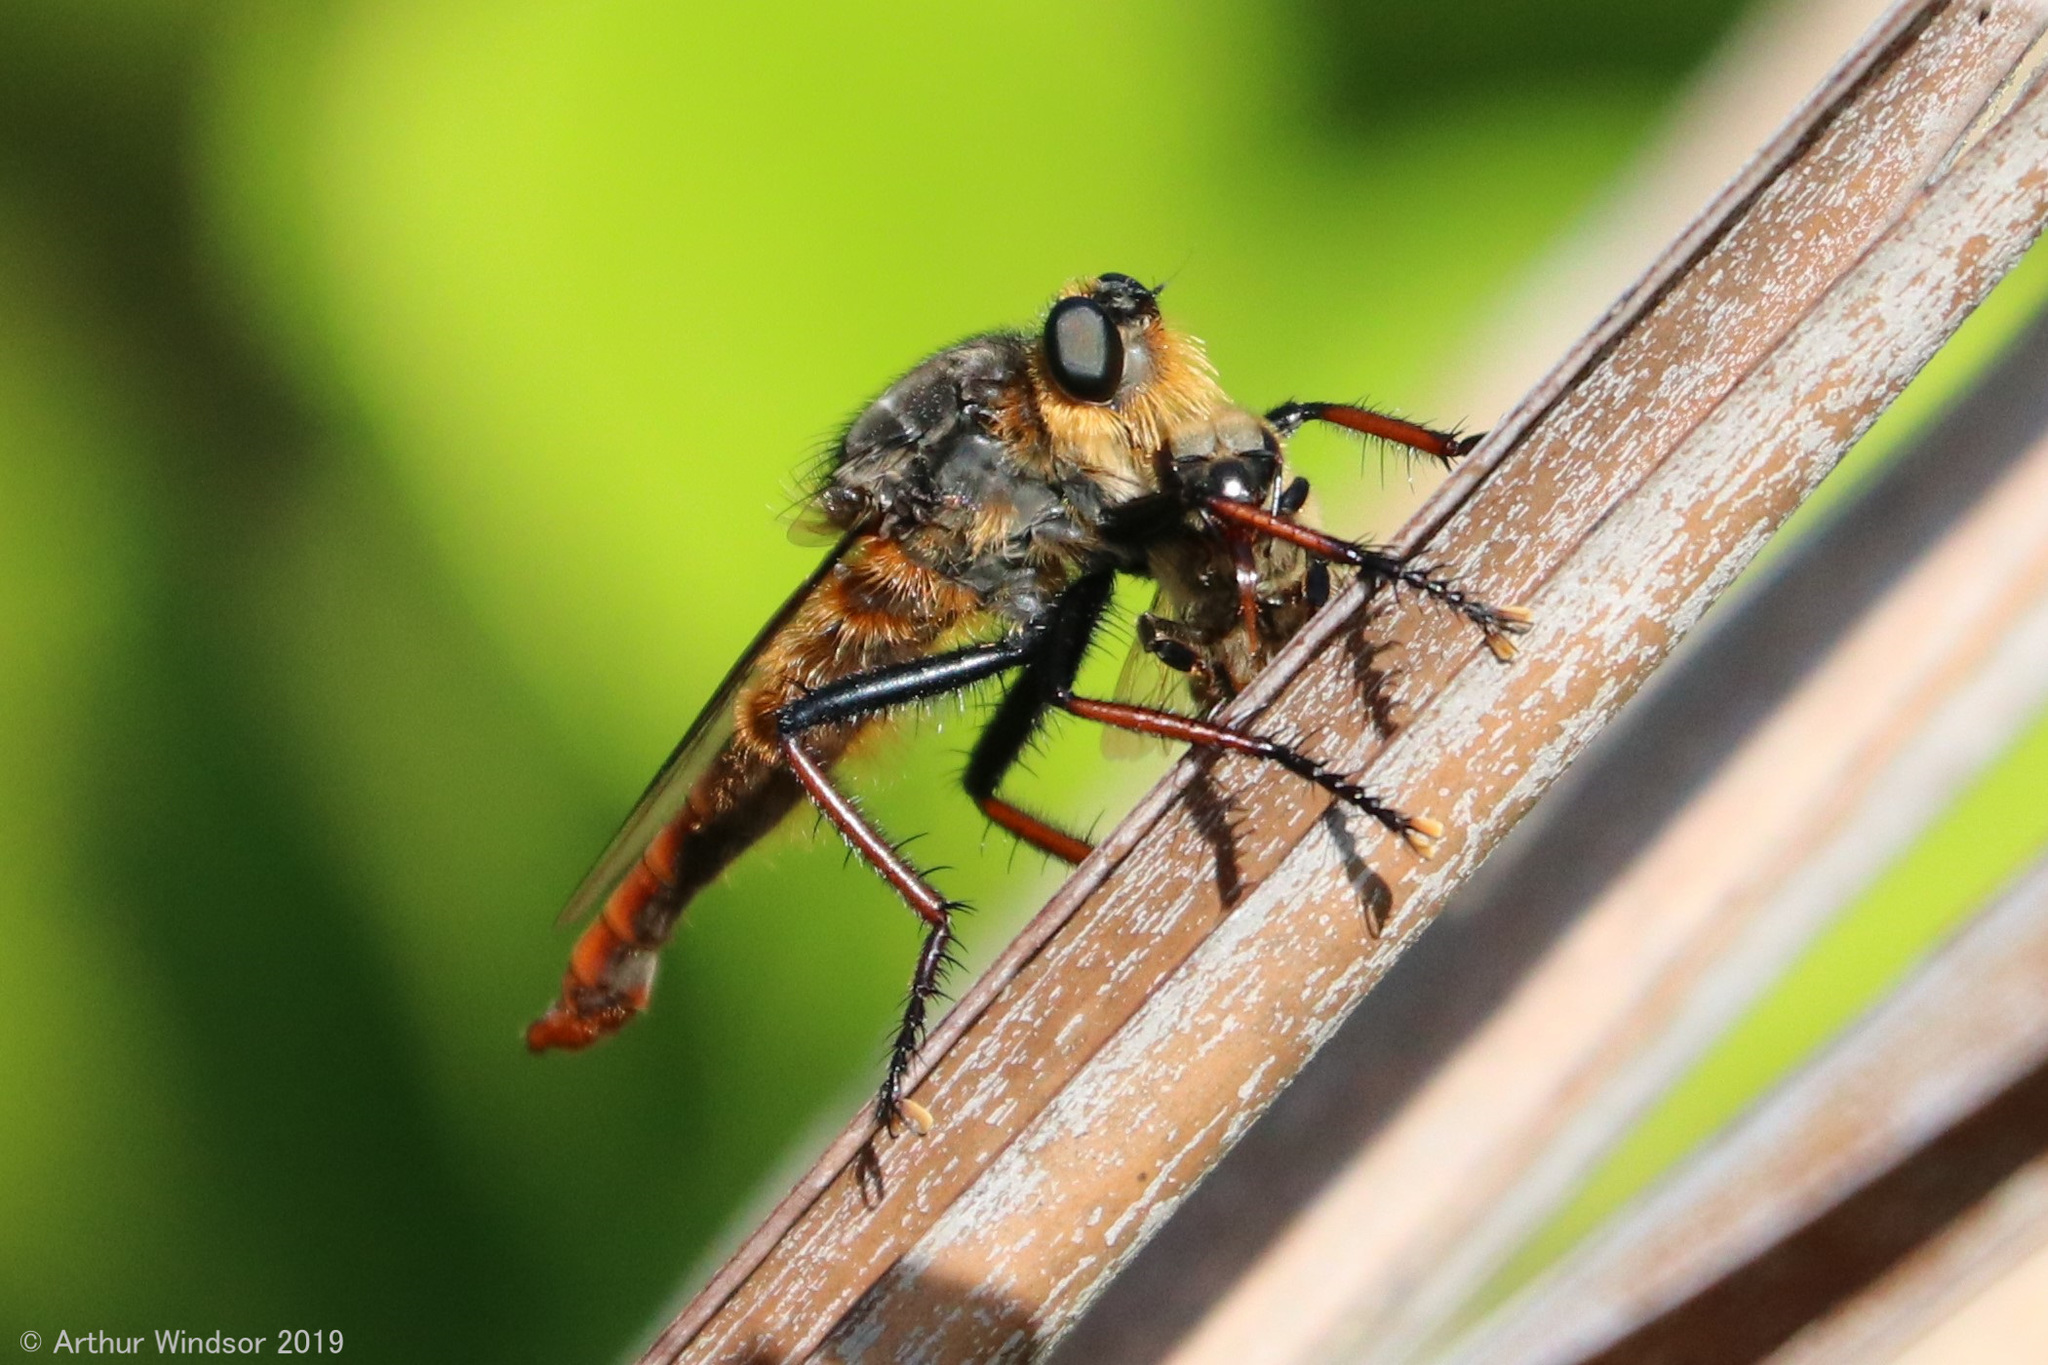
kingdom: Animalia
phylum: Arthropoda
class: Insecta
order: Diptera
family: Asilidae
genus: Proctacanthus
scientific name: Proctacanthus fulviventris
